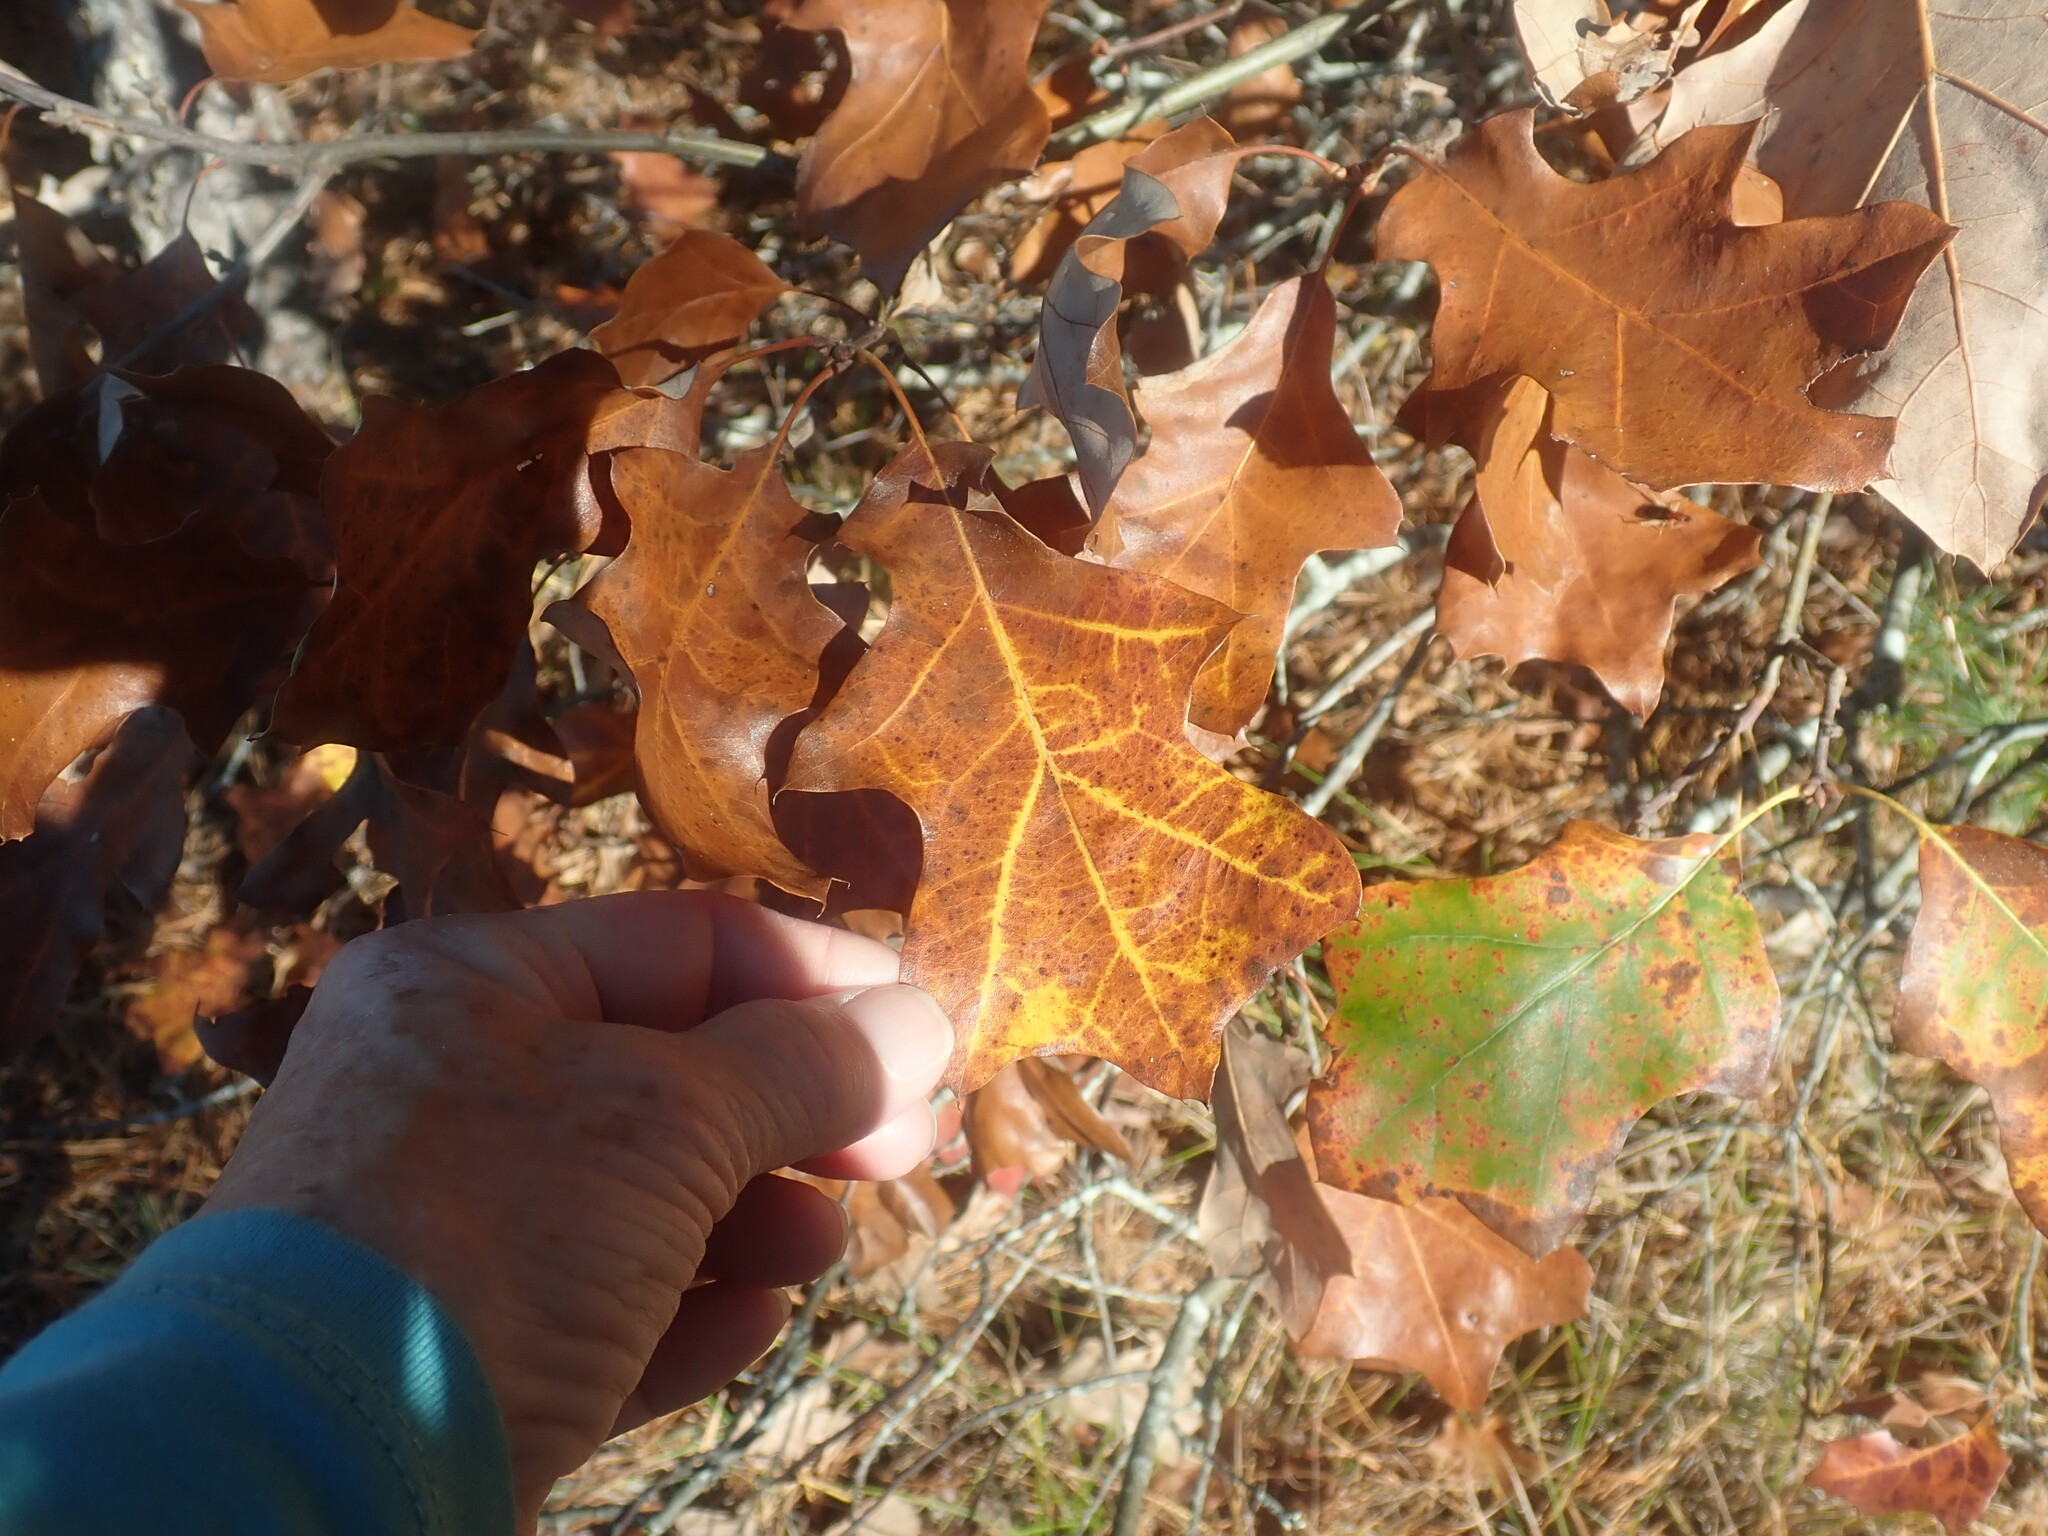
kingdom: Plantae
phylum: Tracheophyta
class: Magnoliopsida
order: Fagales
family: Fagaceae
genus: Quercus
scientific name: Quercus ilicifolia
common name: Bear oak
